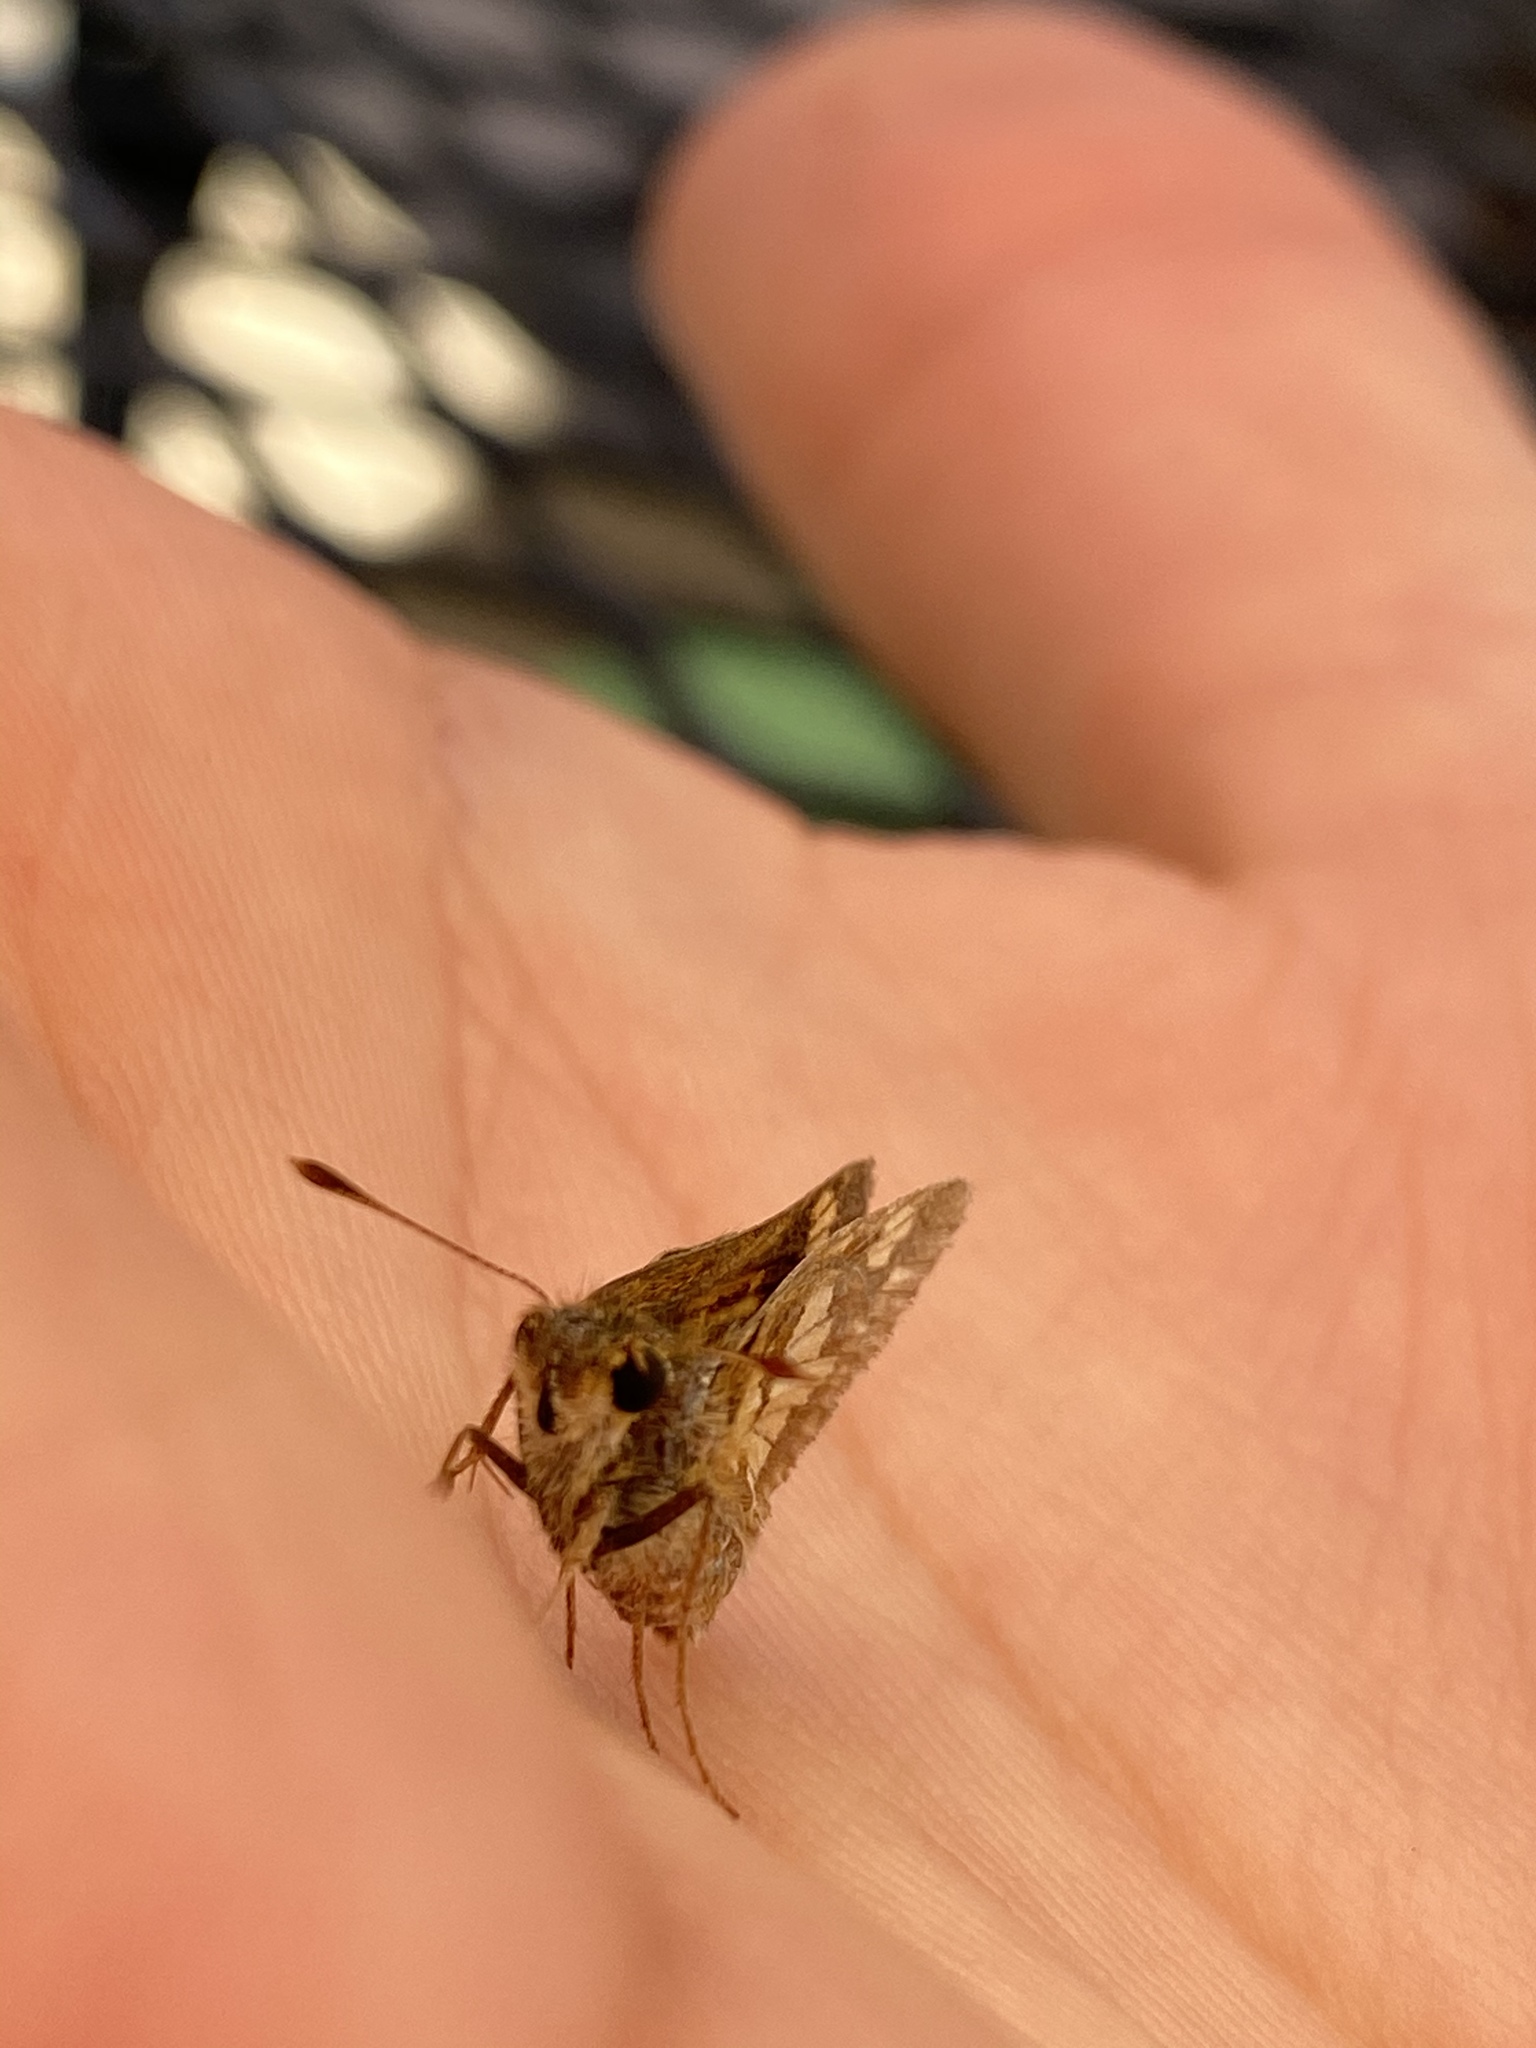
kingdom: Animalia
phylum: Arthropoda
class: Insecta
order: Lepidoptera
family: Hesperiidae
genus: Polites
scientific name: Polites coras
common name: Peck's skipper
